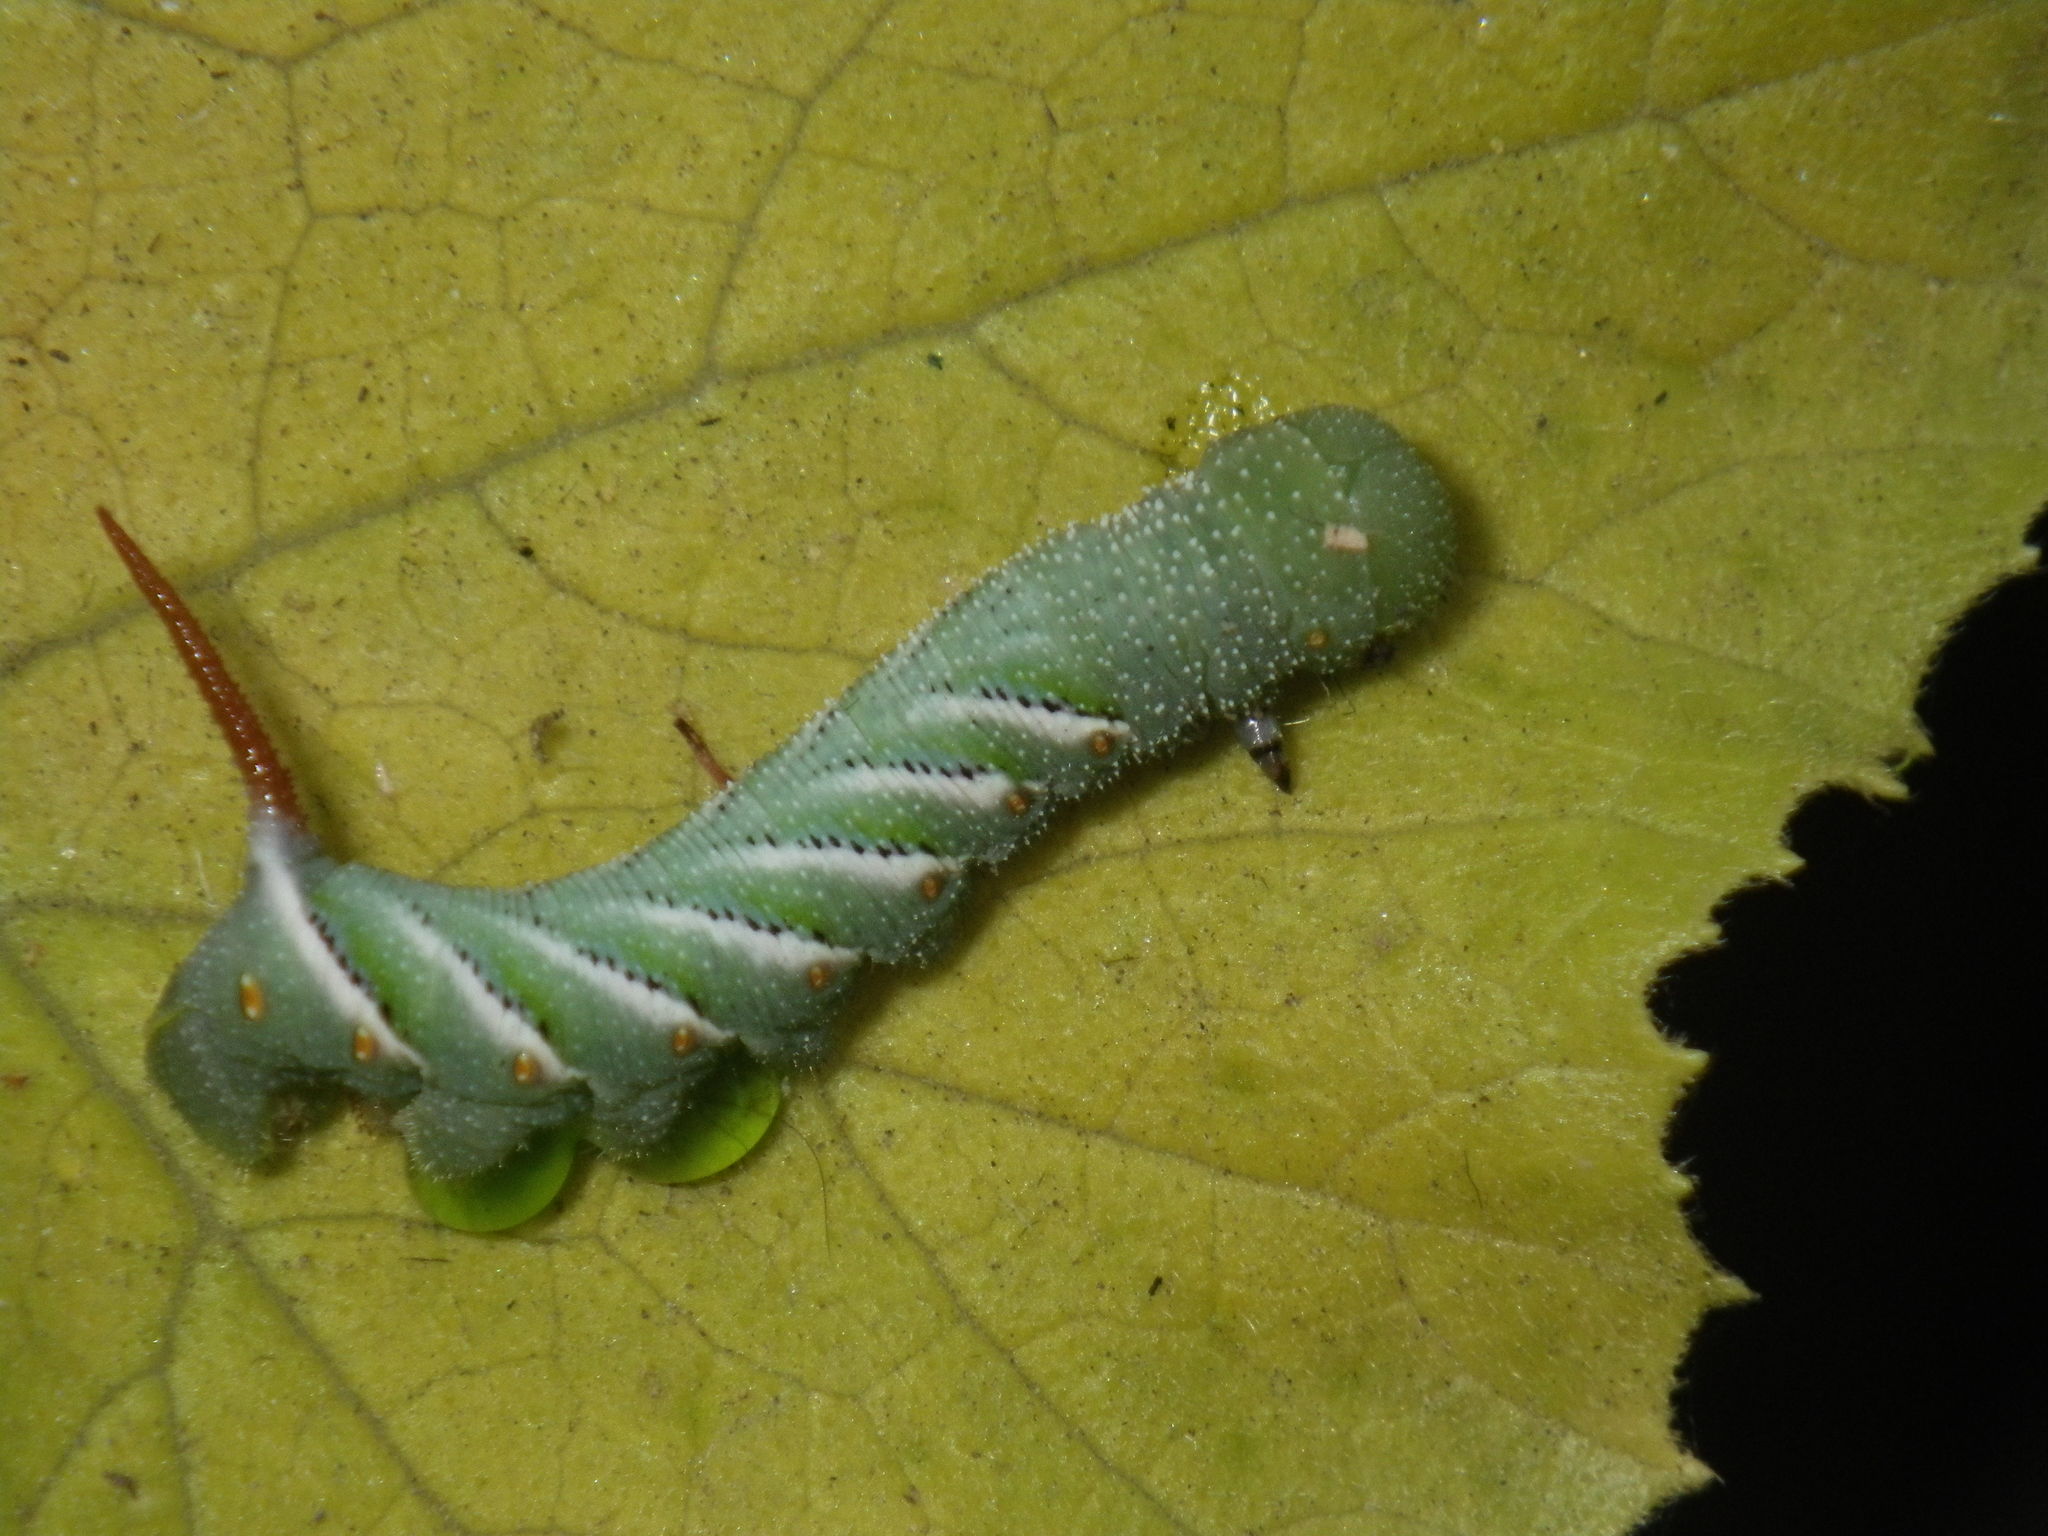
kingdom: Animalia
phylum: Arthropoda
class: Insecta
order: Lepidoptera
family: Sphingidae
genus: Manduca
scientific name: Manduca sexta
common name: Carolina sphinx
